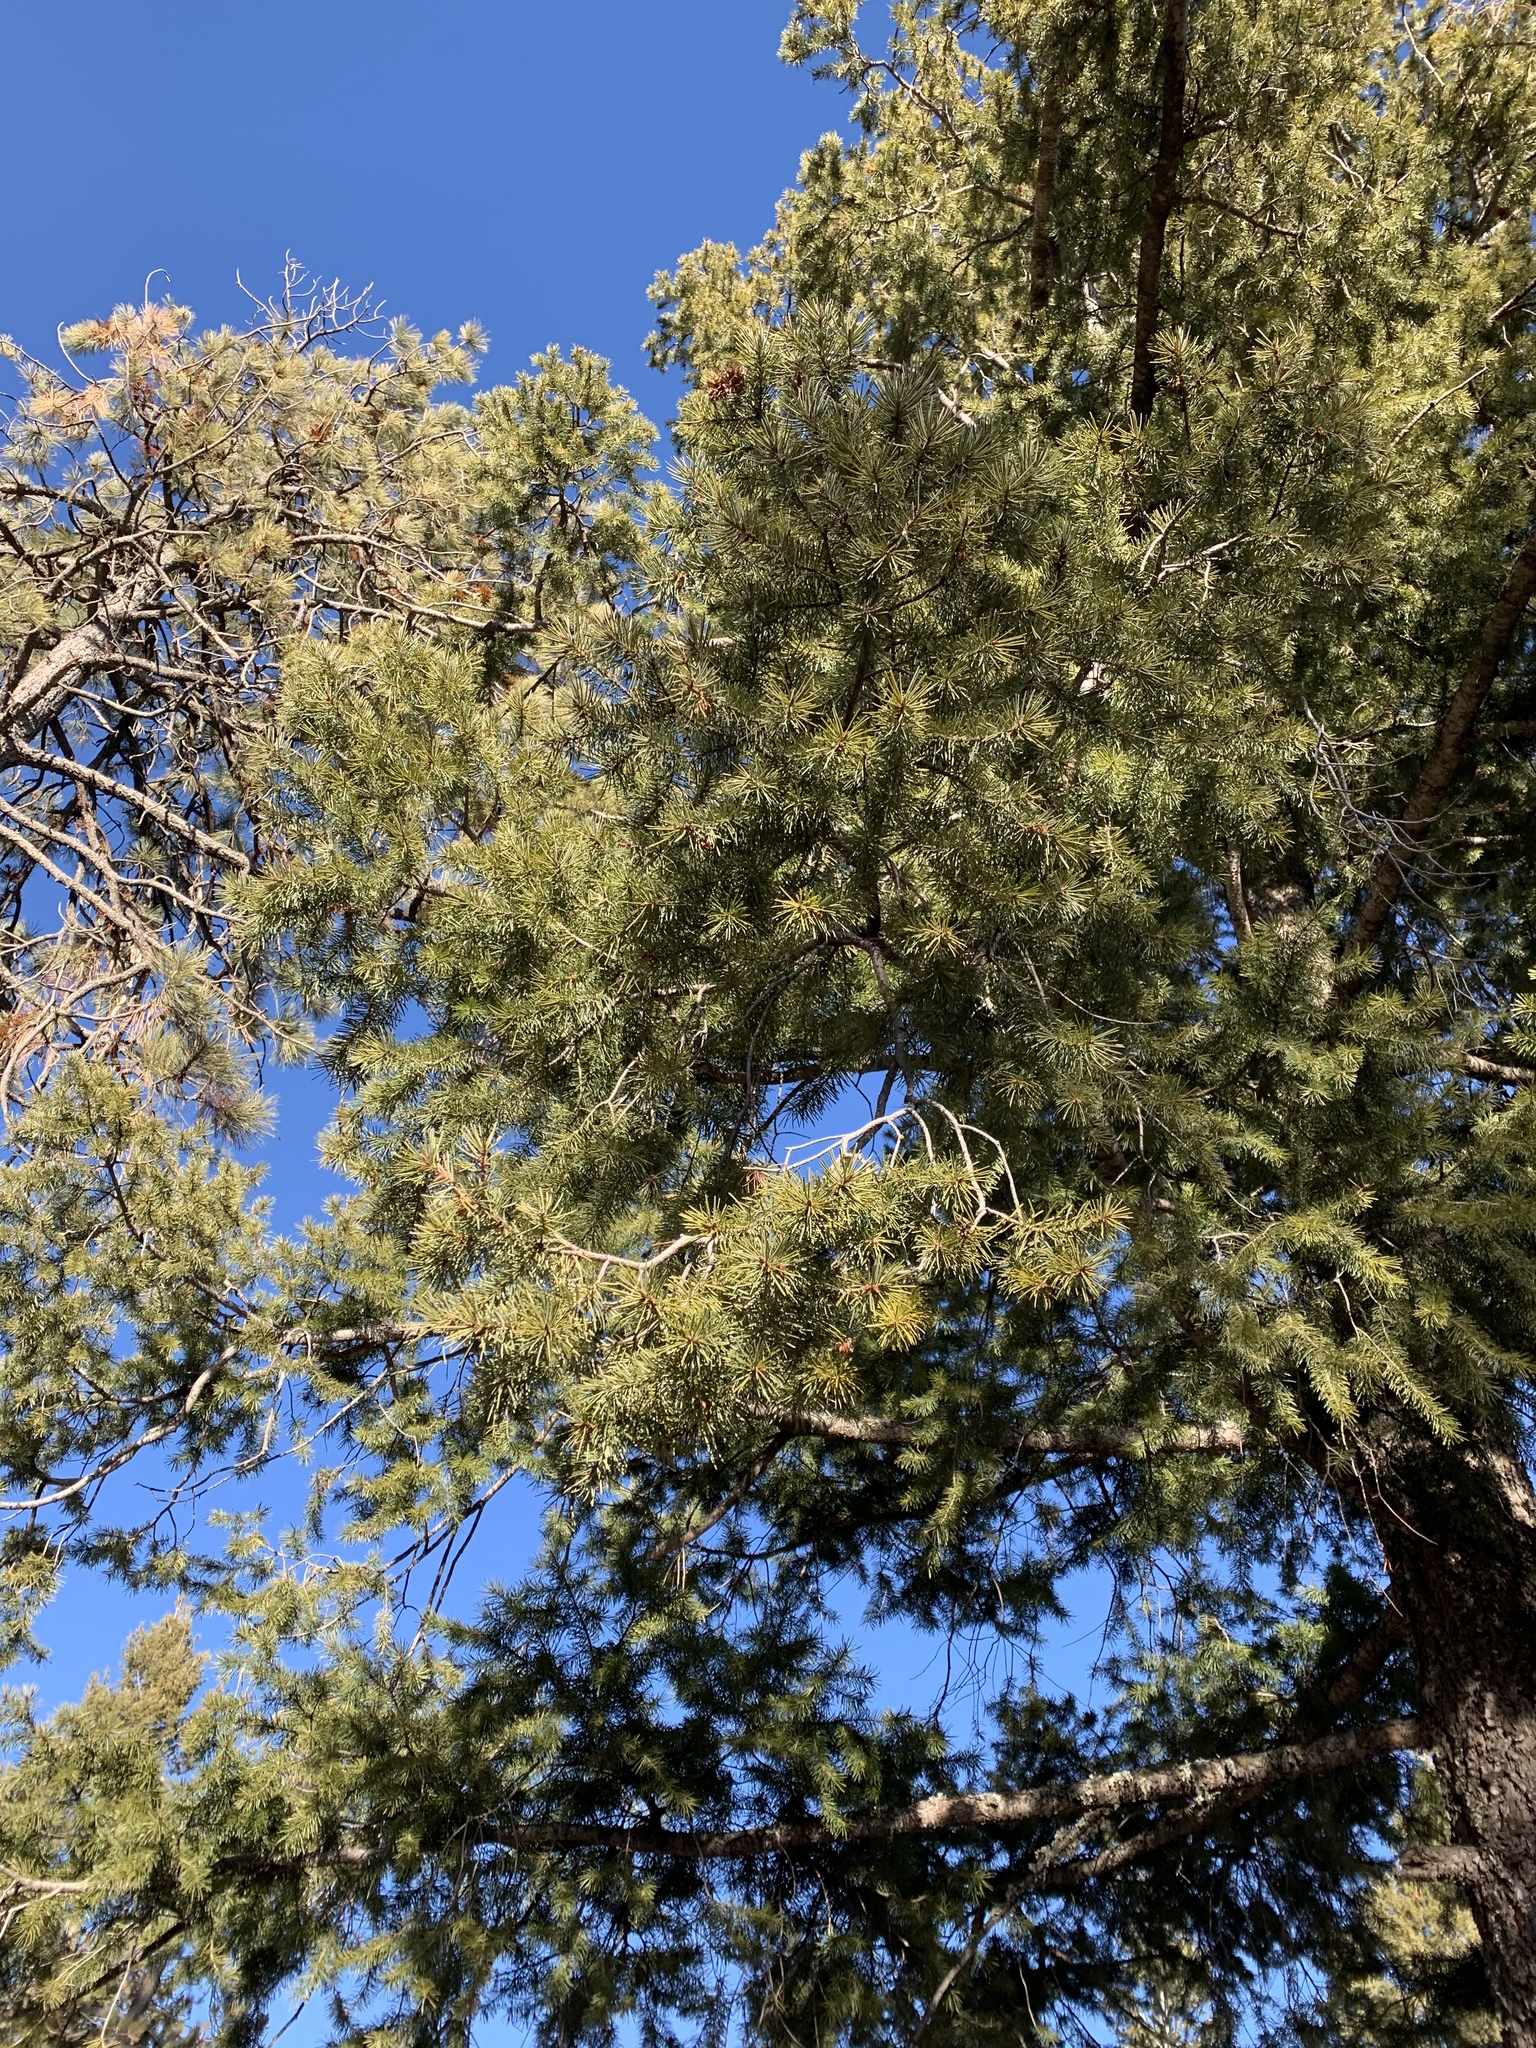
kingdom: Plantae
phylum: Tracheophyta
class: Pinopsida
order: Pinales
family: Pinaceae
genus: Pseudotsuga
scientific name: Pseudotsuga menziesii
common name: Douglas fir
